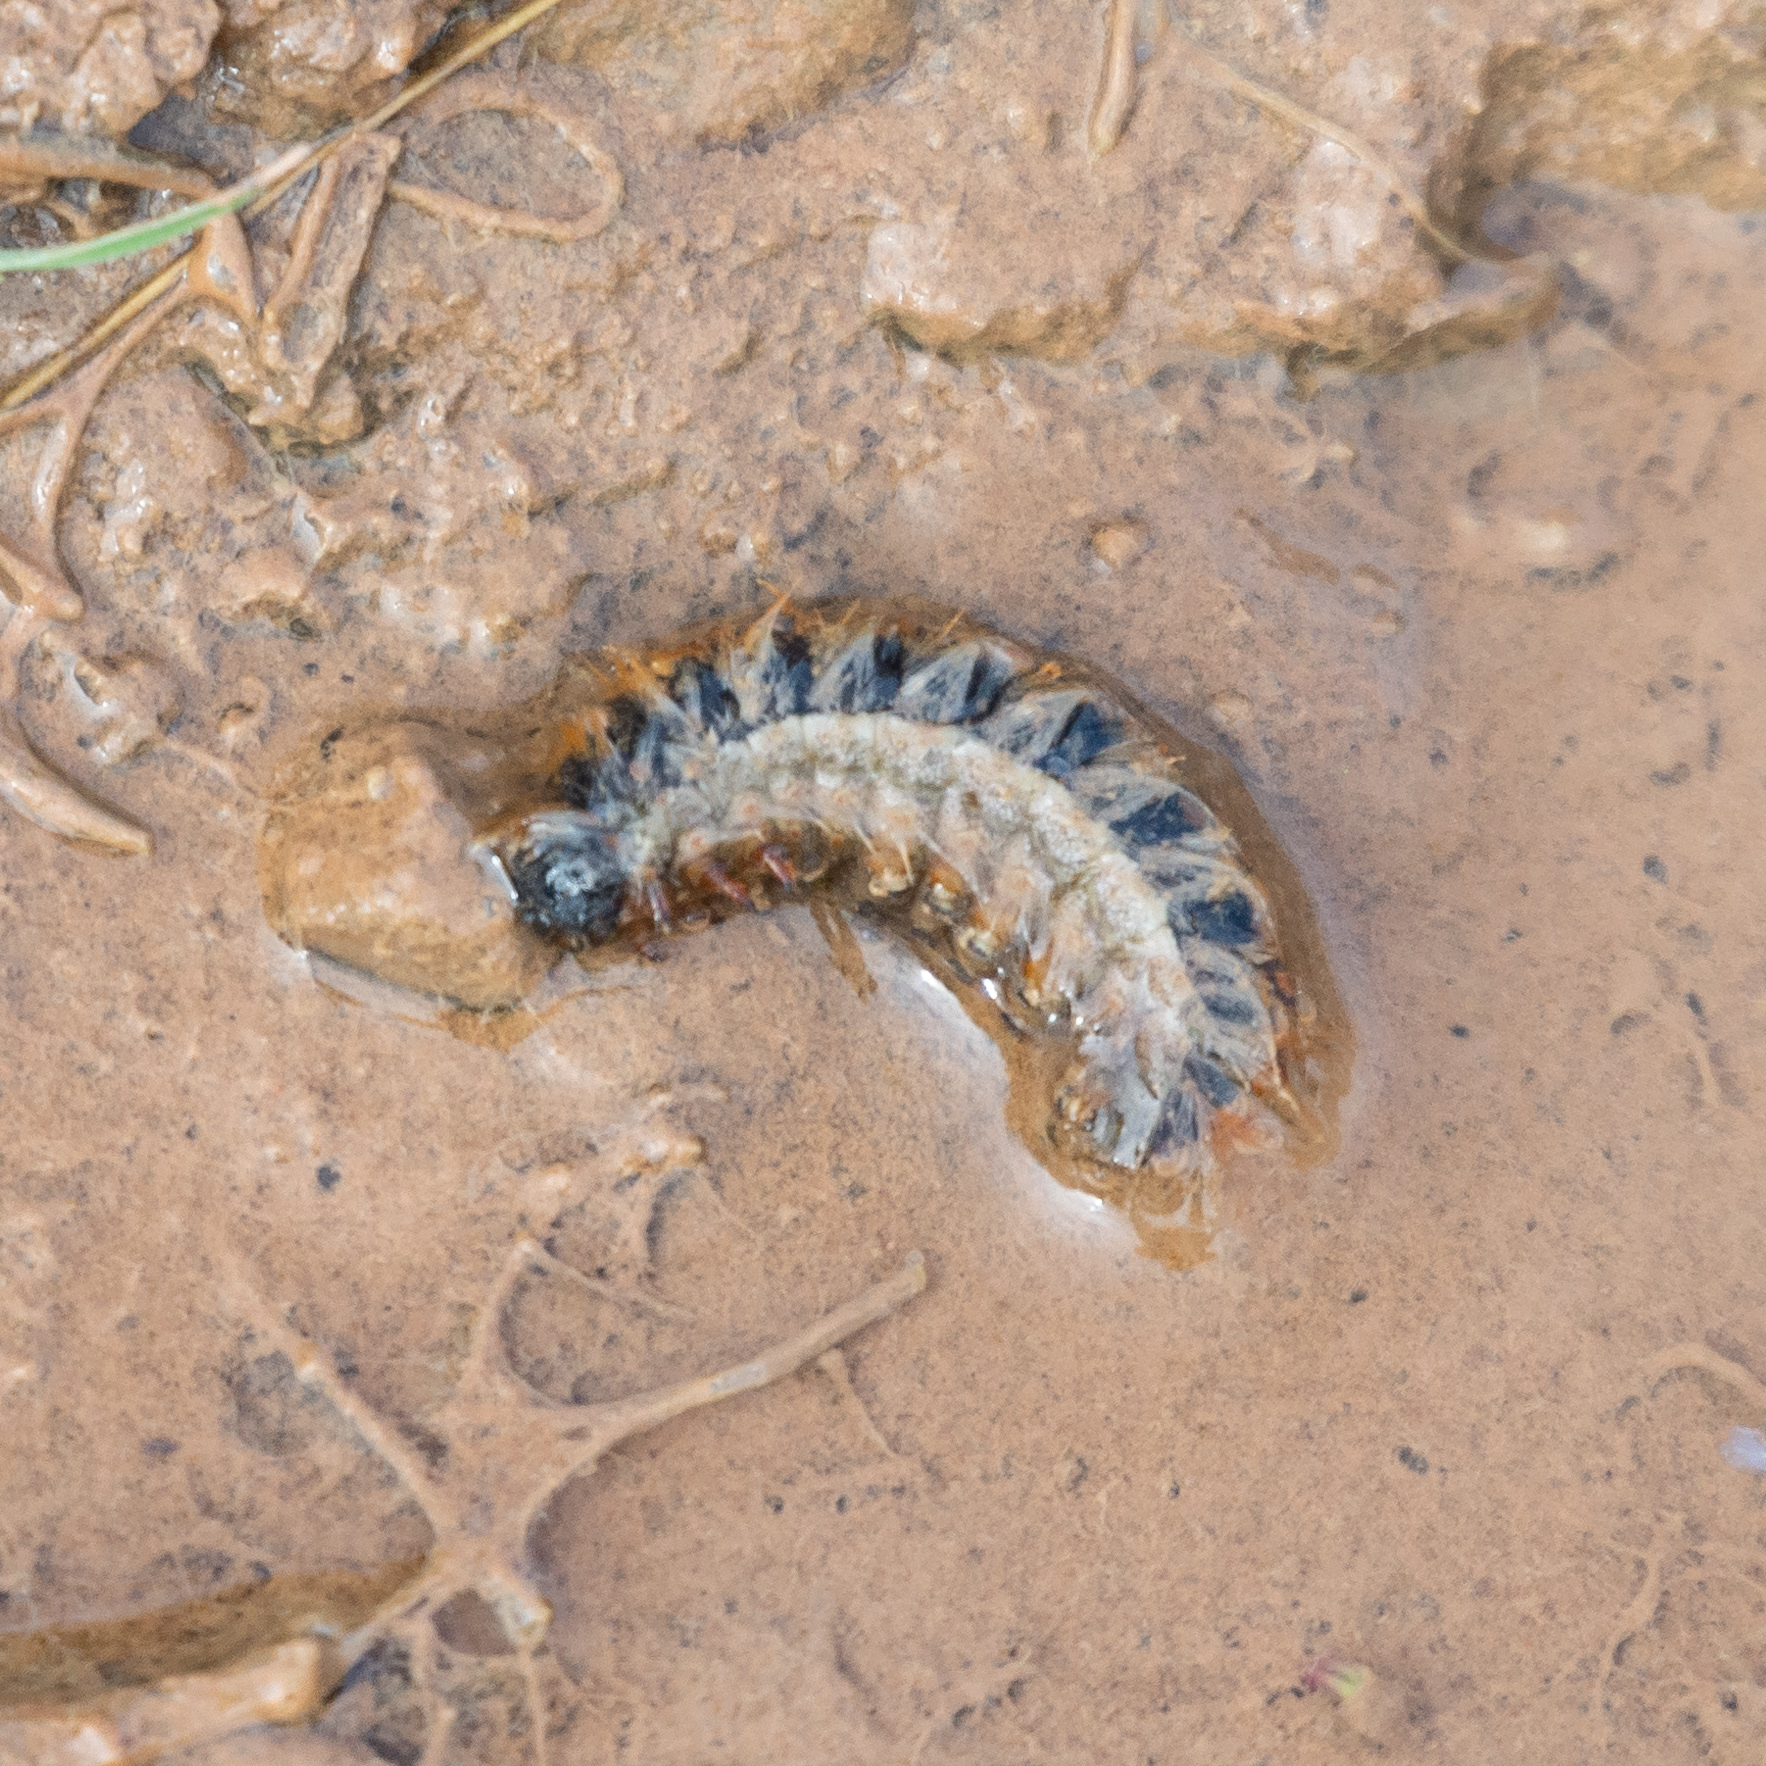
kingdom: Animalia
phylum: Arthropoda
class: Insecta
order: Lepidoptera
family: Notodontidae
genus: Thaumetopoea
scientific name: Thaumetopoea pityocampa
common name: Pine processionary
